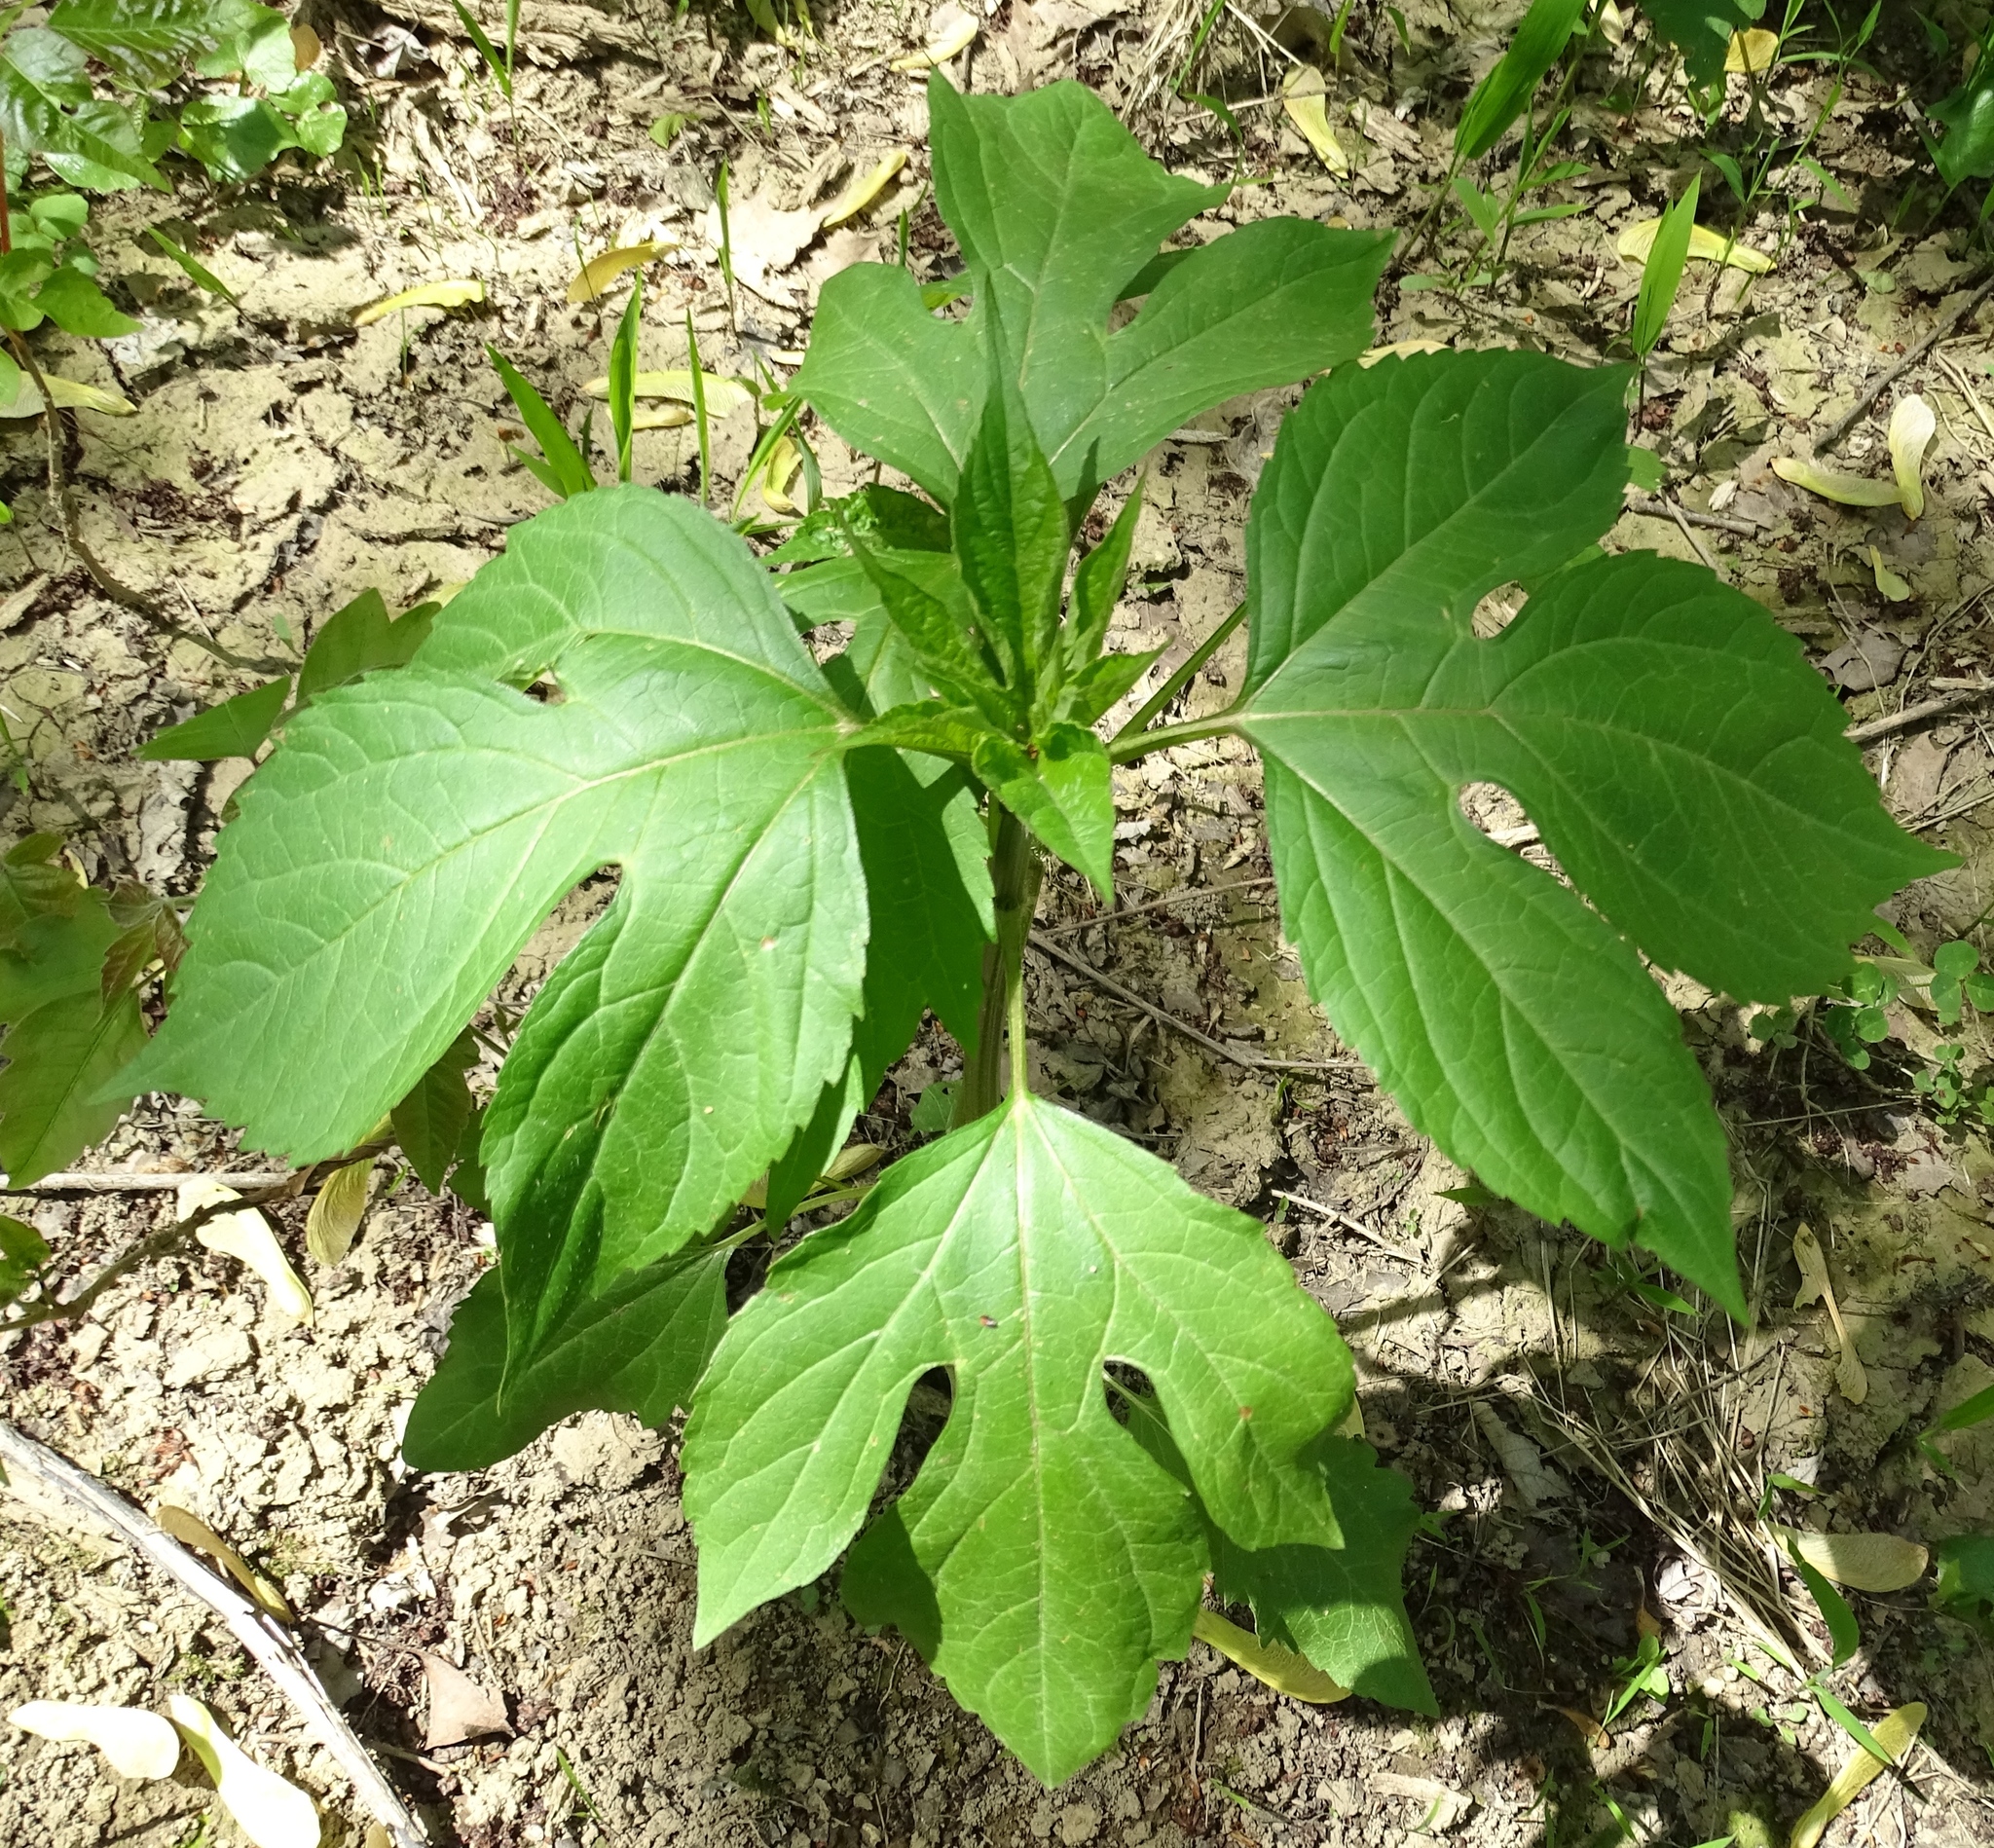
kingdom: Plantae
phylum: Tracheophyta
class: Magnoliopsida
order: Asterales
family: Asteraceae
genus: Ambrosia
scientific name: Ambrosia trifida
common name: Giant ragweed
